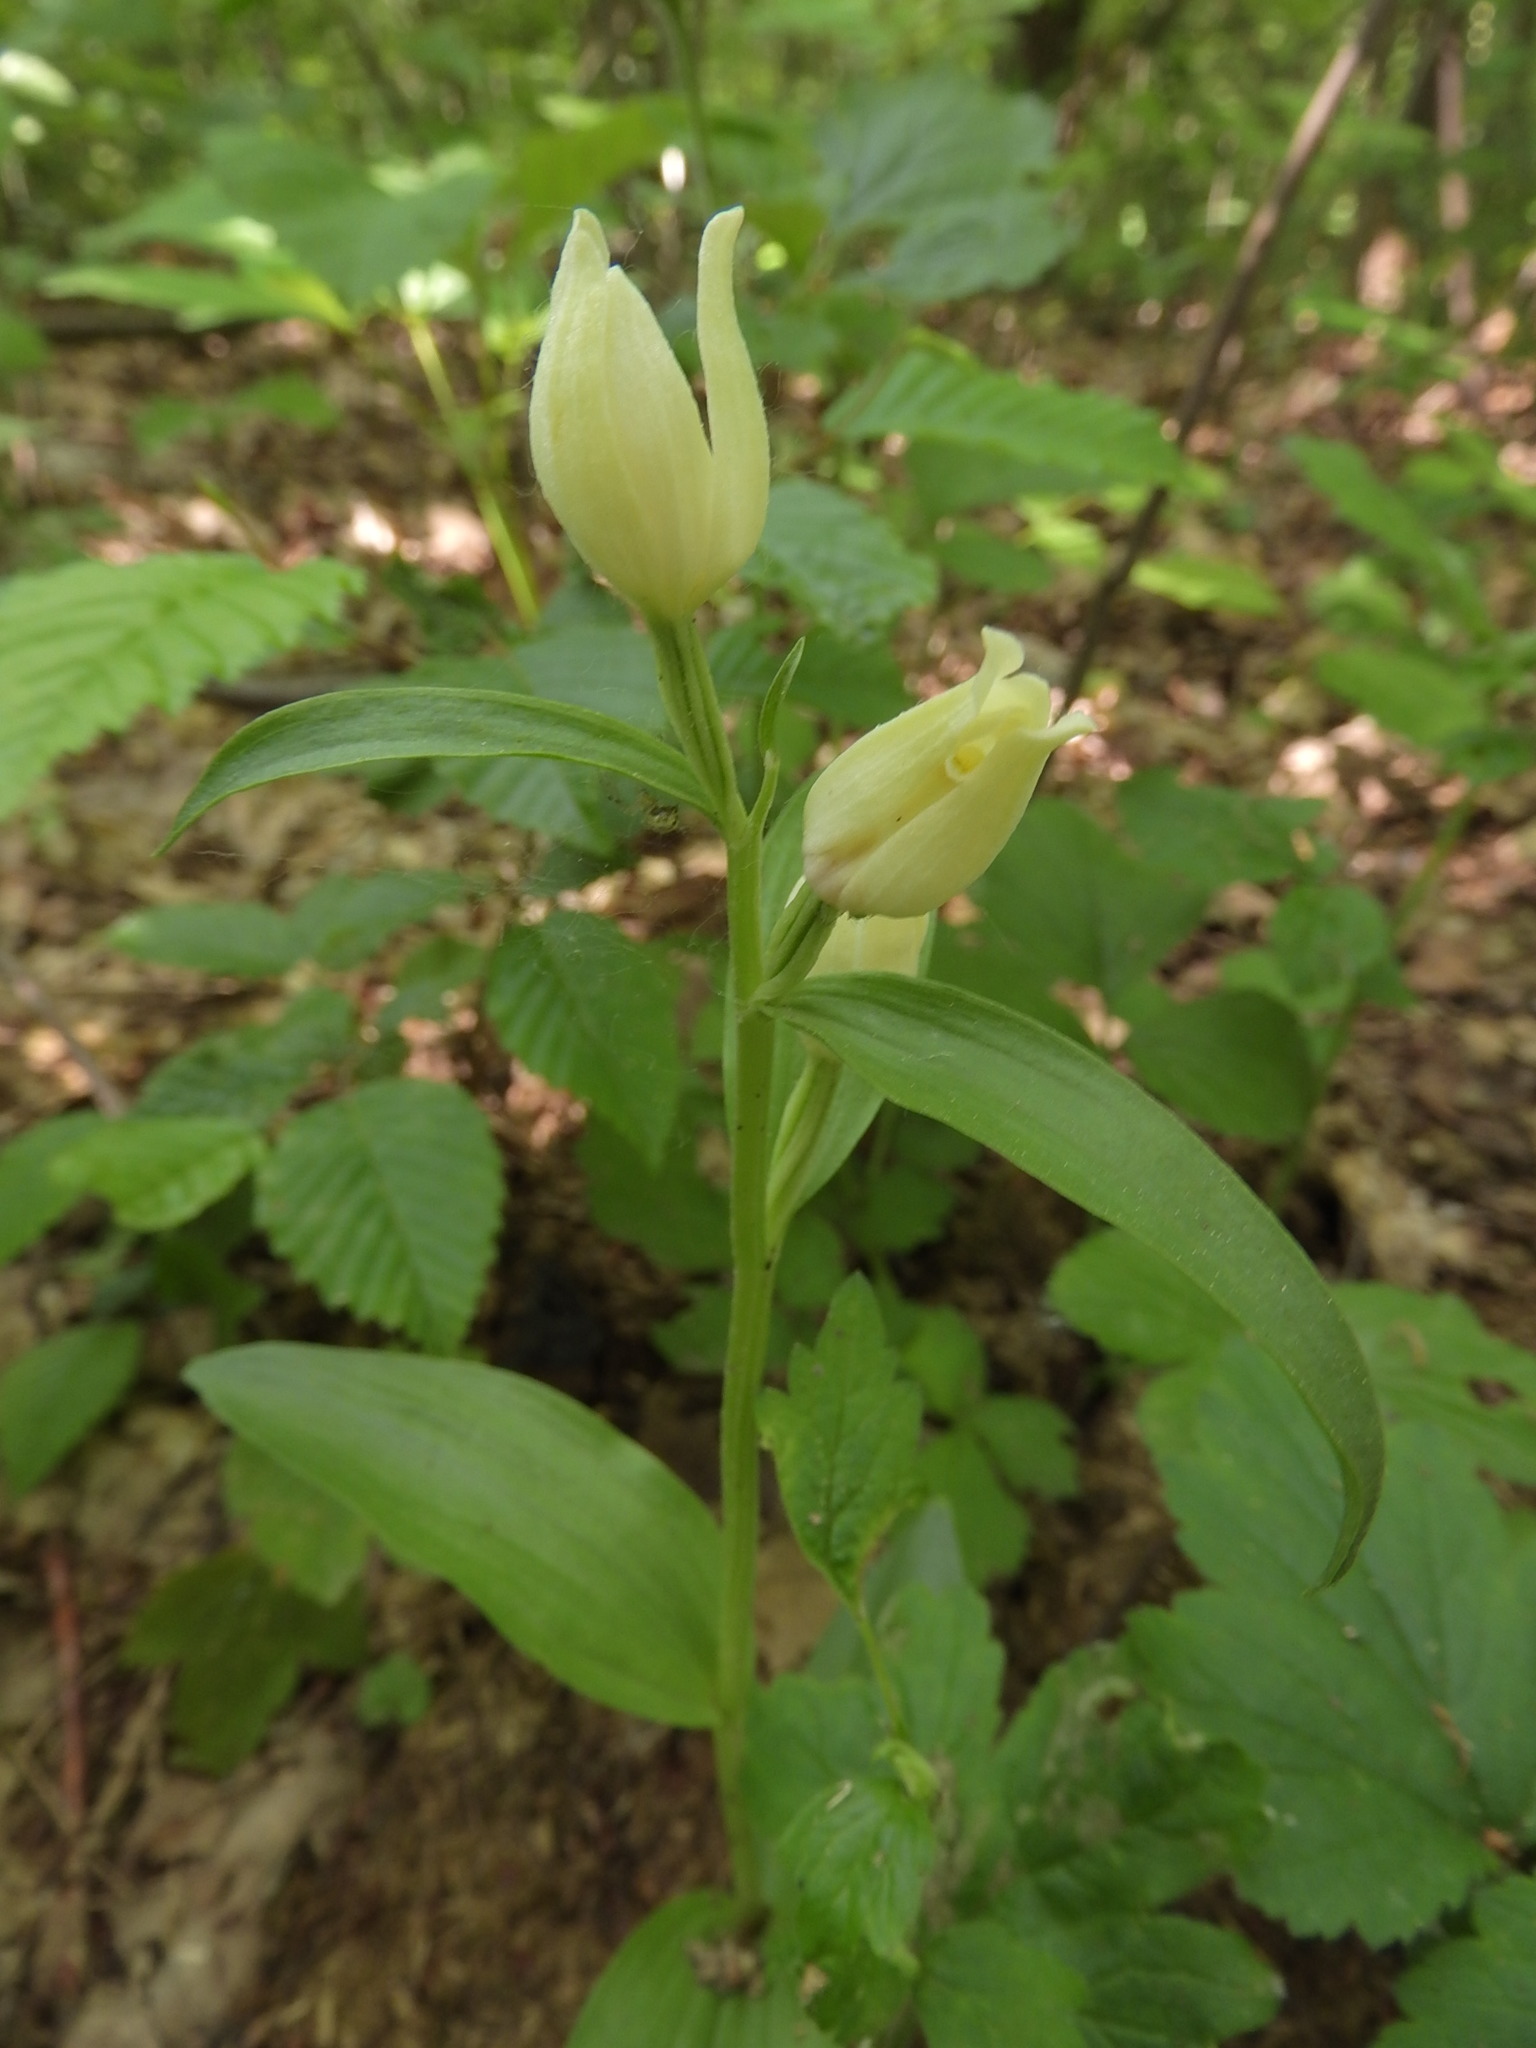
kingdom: Plantae
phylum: Tracheophyta
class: Liliopsida
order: Asparagales
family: Orchidaceae
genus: Cephalanthera
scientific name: Cephalanthera damasonium
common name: White helleborine
